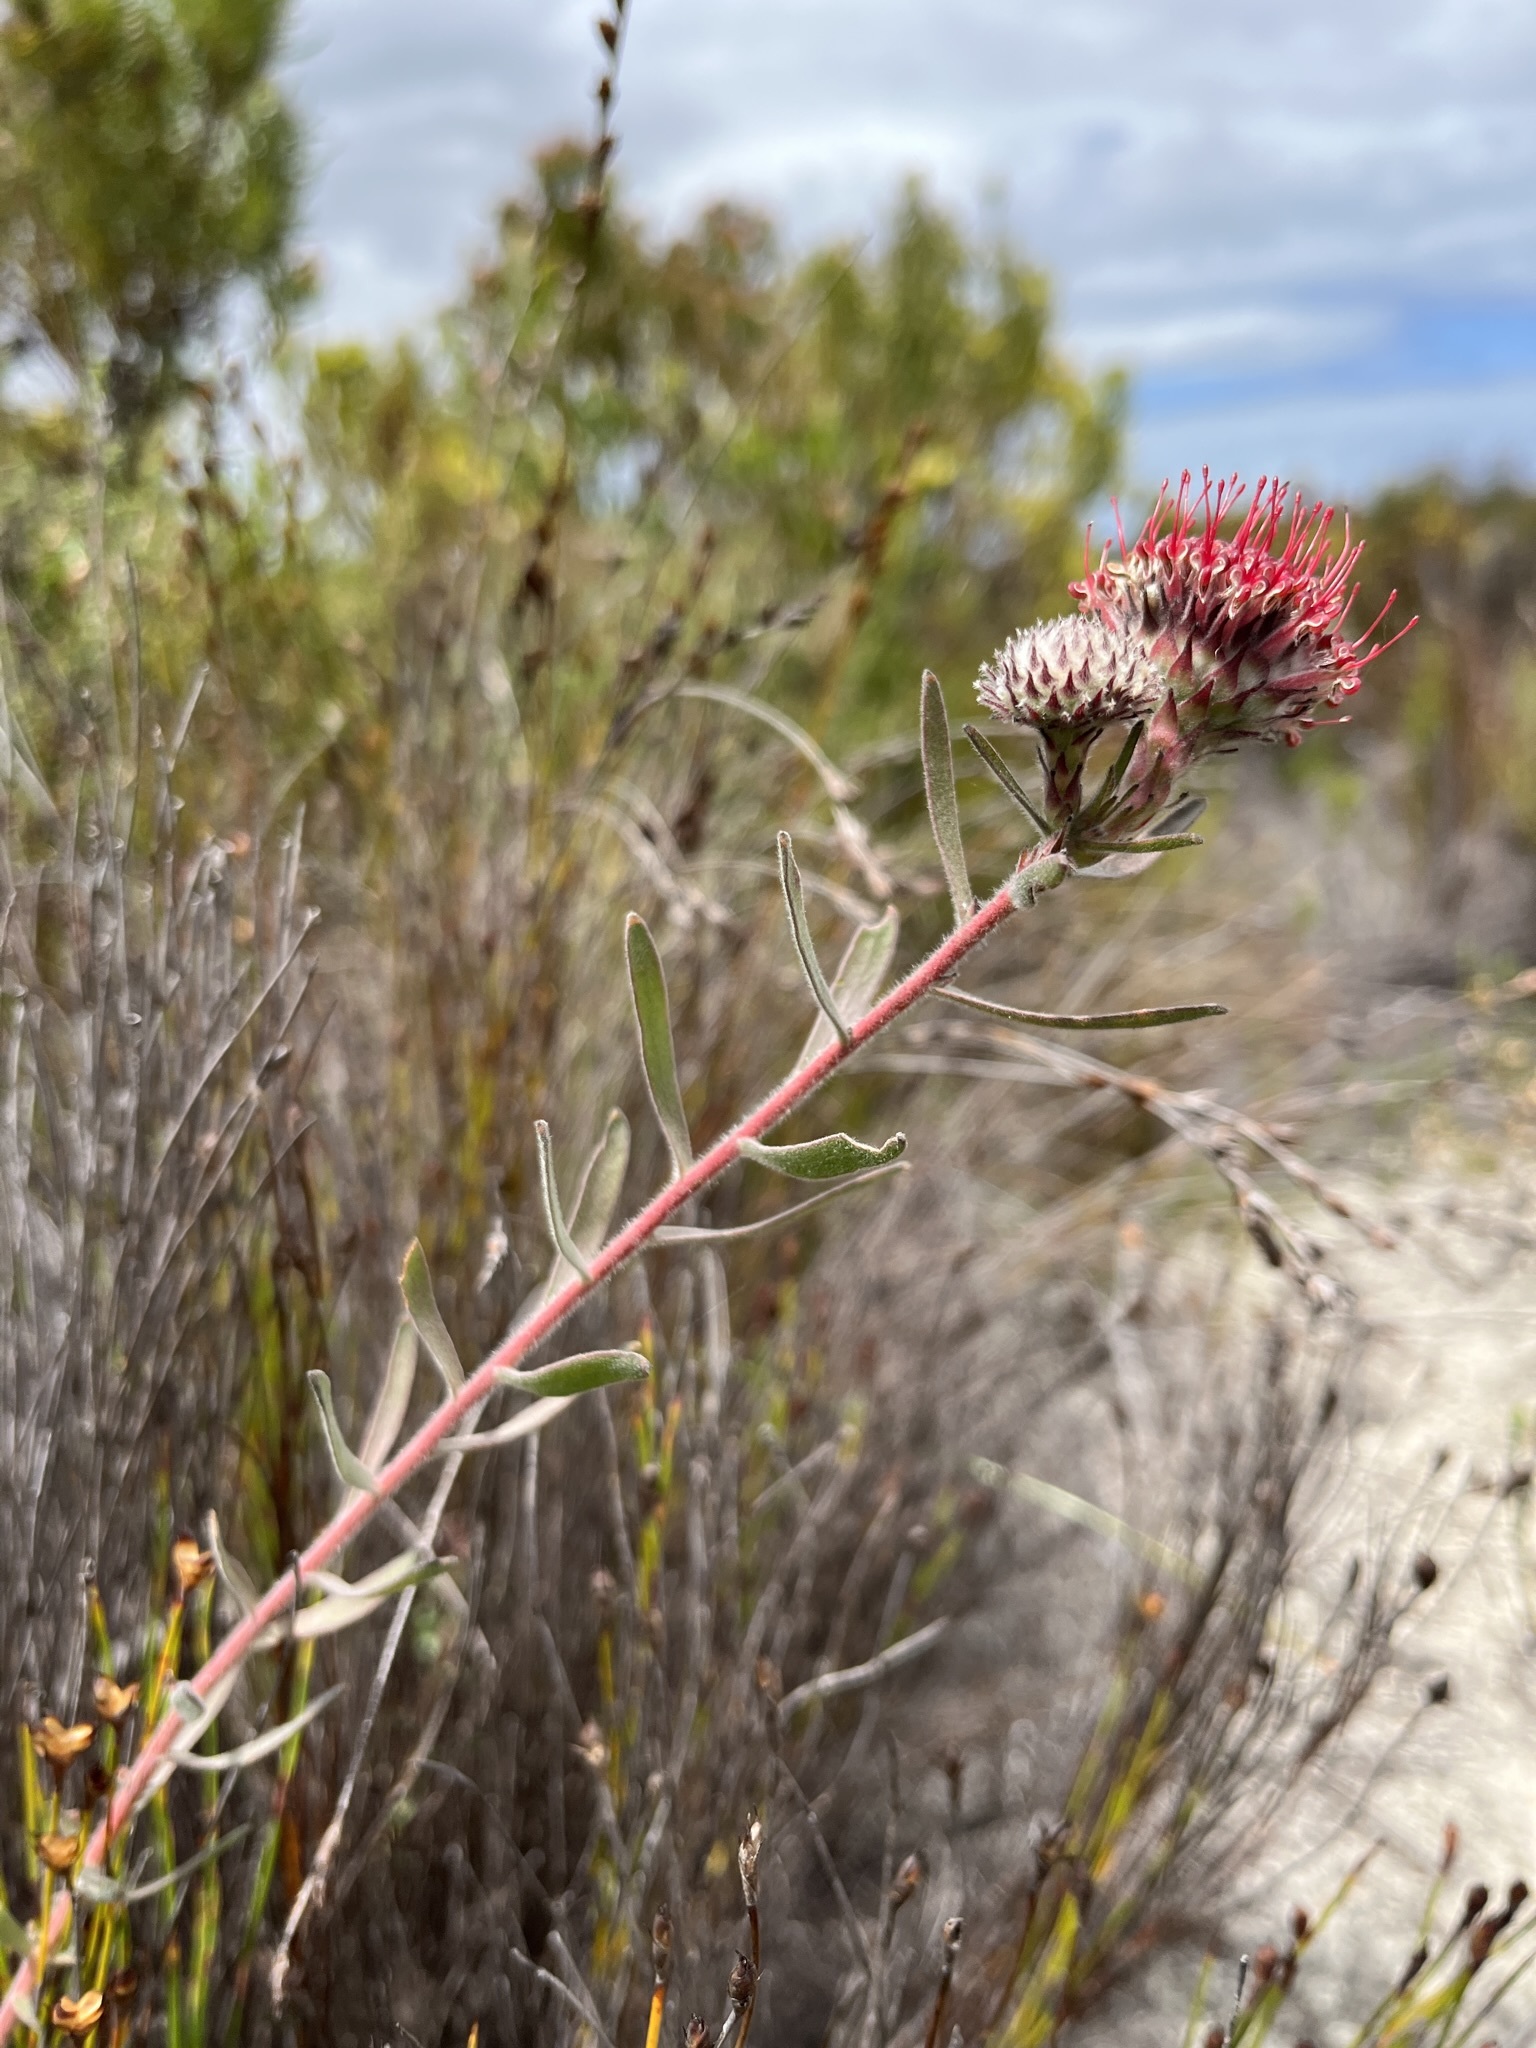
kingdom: Plantae
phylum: Tracheophyta
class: Magnoliopsida
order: Proteales
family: Proteaceae
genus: Leucospermum
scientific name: Leucospermum pedunculatum
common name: White-trailing pincushion
